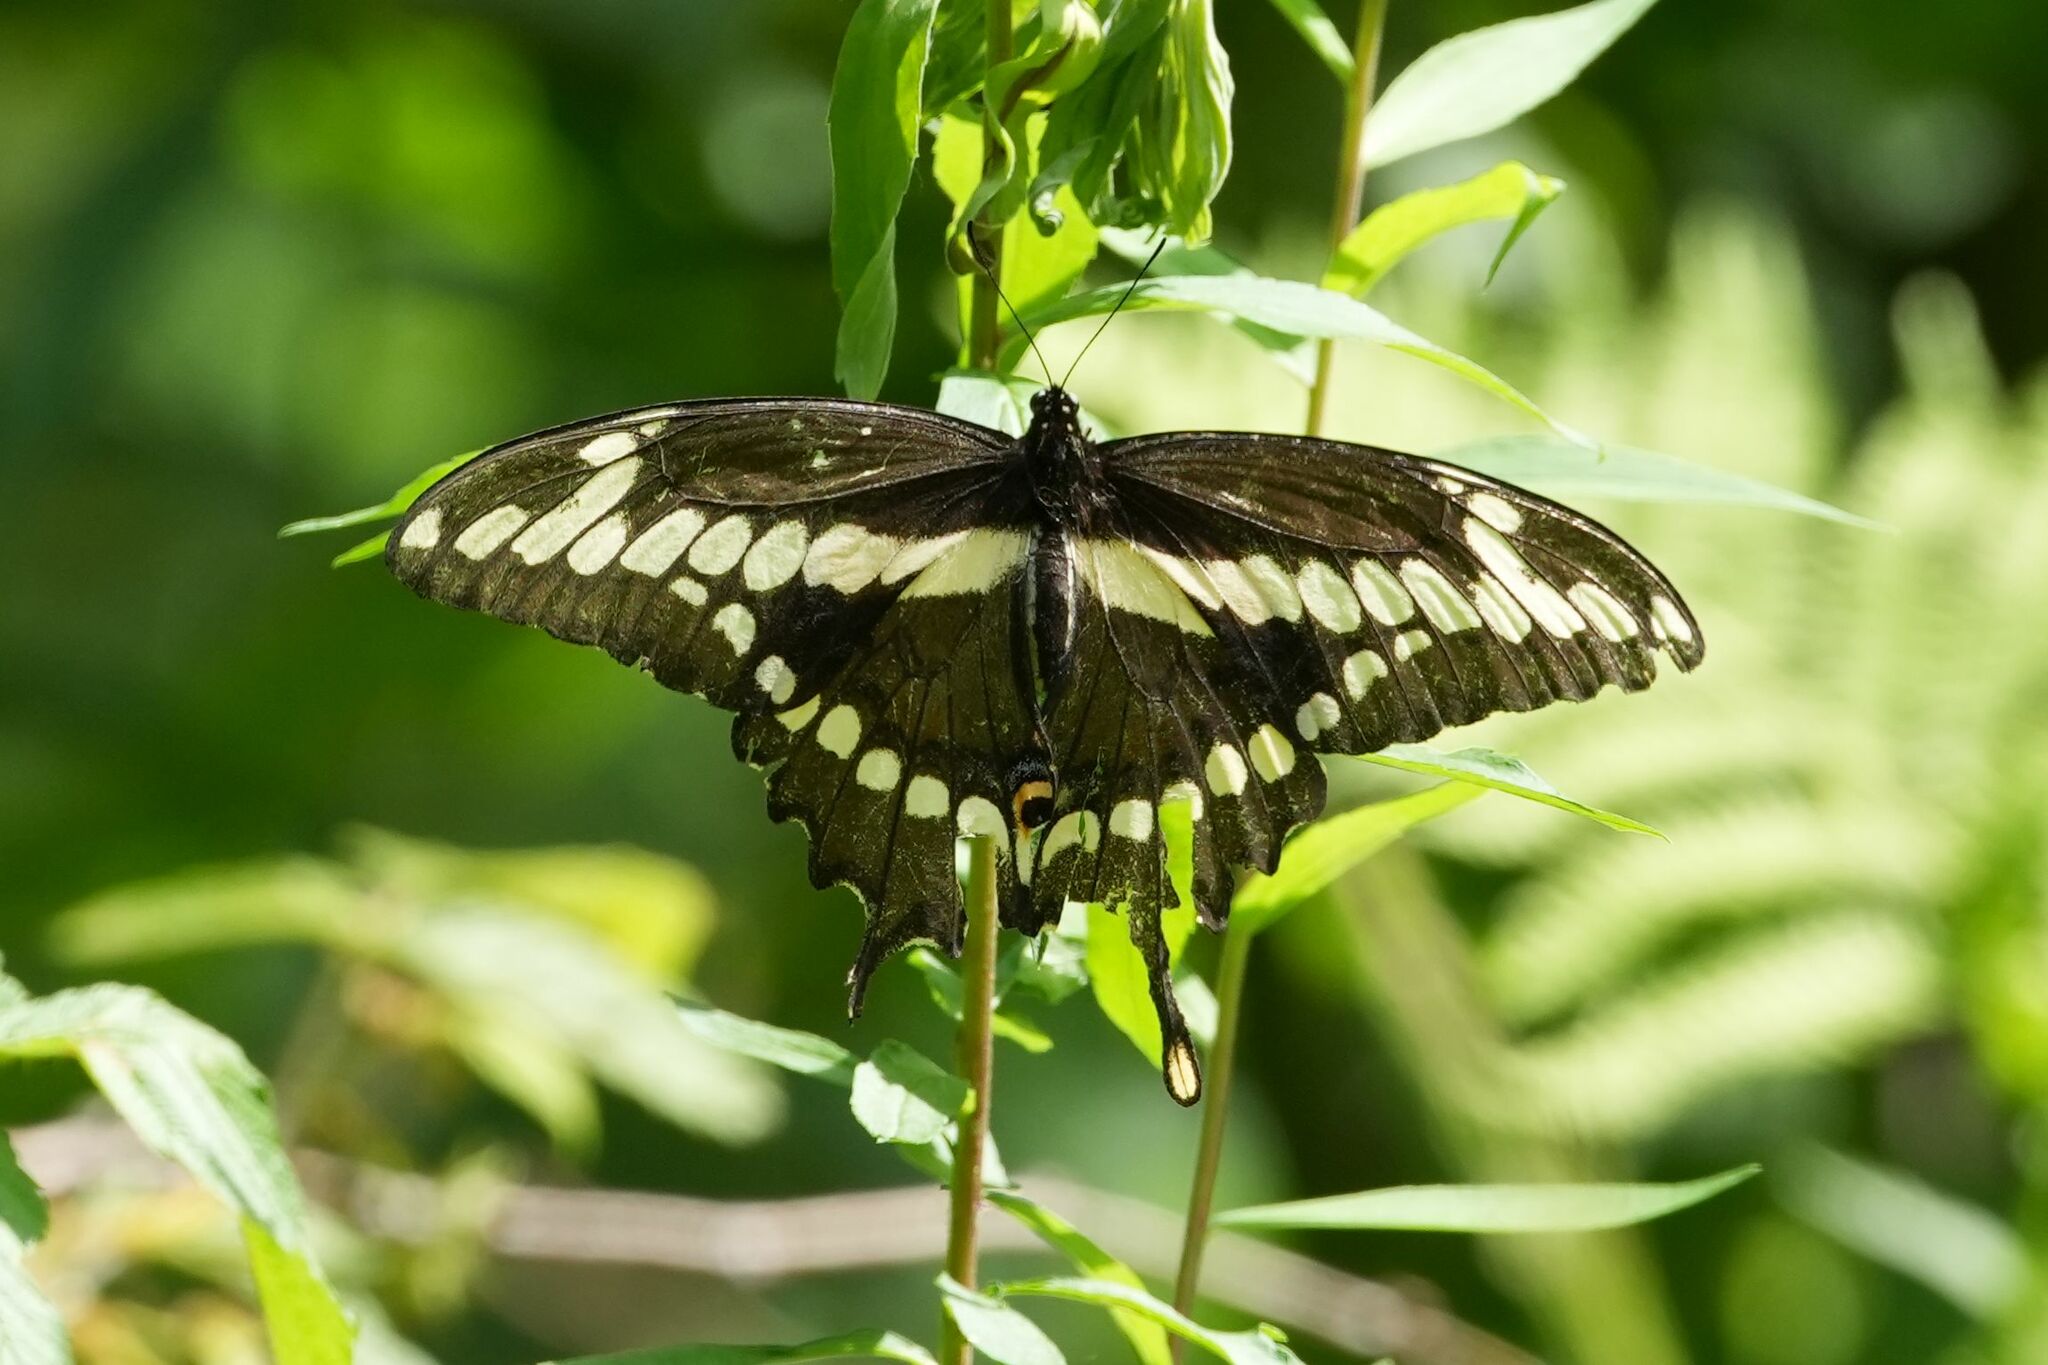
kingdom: Animalia
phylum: Arthropoda
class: Insecta
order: Lepidoptera
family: Papilionidae
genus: Papilio
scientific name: Papilio cresphontes
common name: Giant swallowtail
